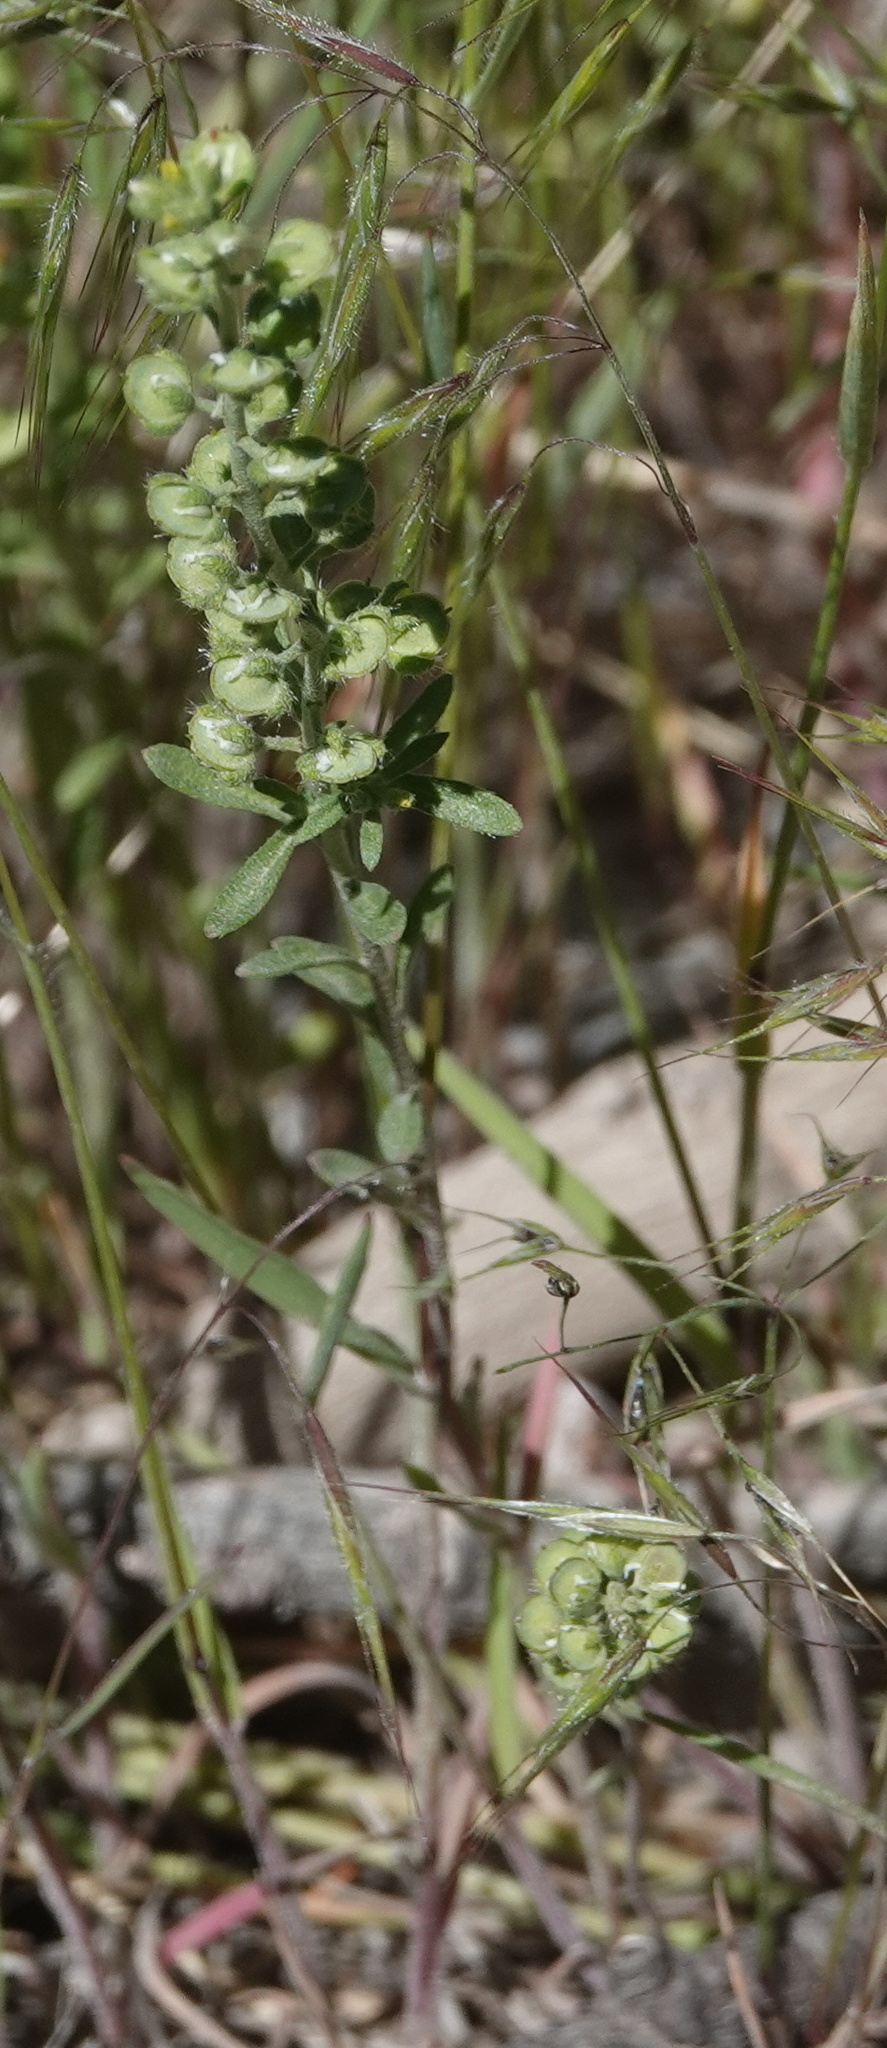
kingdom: Plantae
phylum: Tracheophyta
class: Magnoliopsida
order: Brassicales
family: Brassicaceae
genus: Alyssum
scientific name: Alyssum turkestanicum
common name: Desert alyssum
